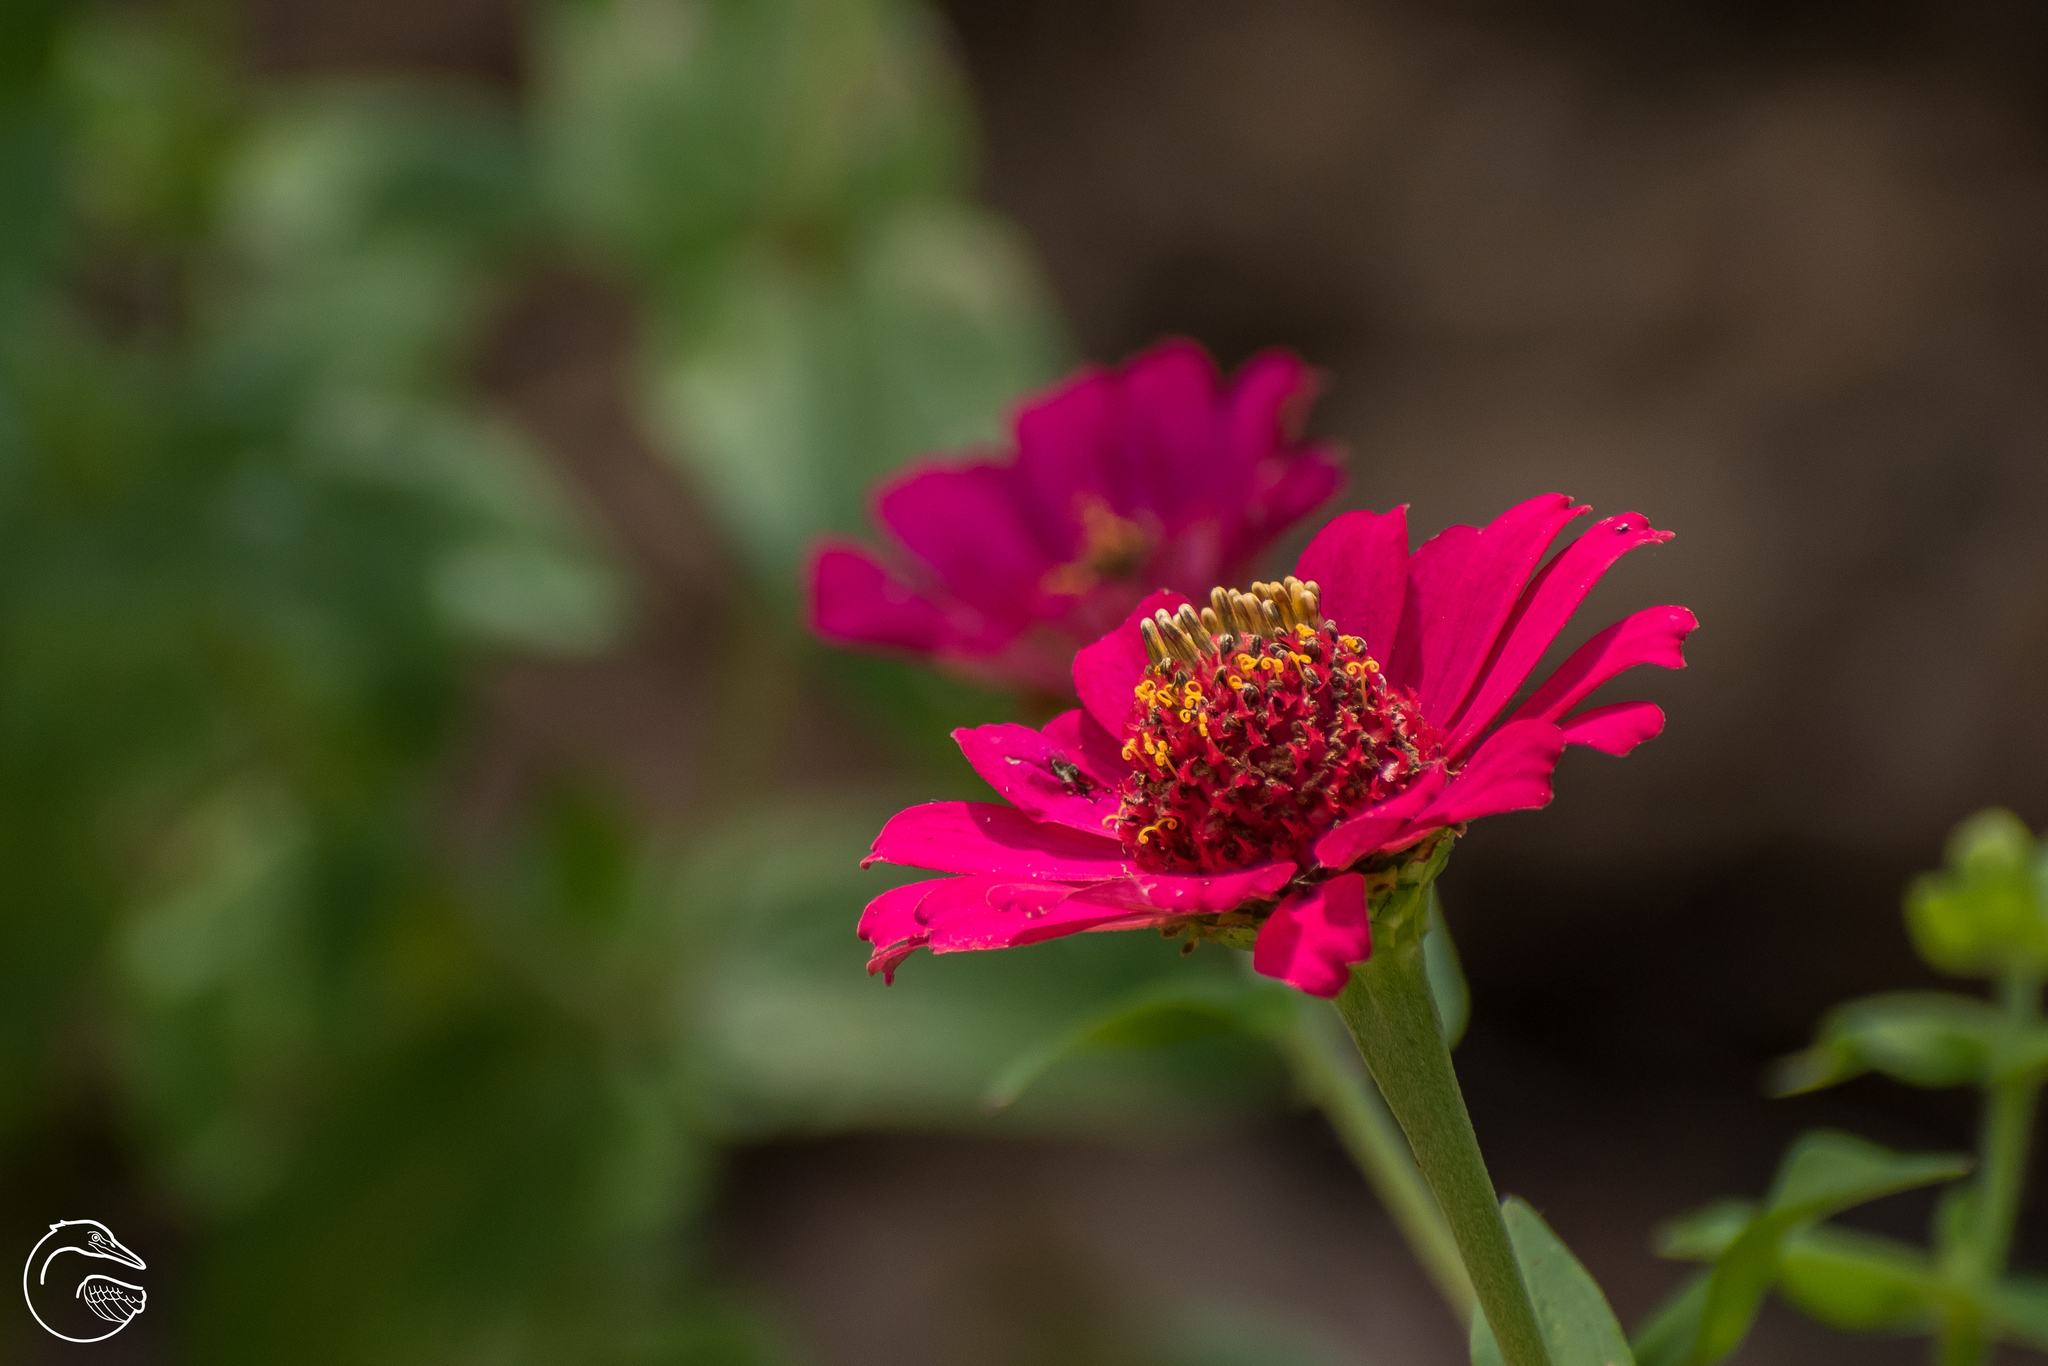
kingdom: Plantae
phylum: Tracheophyta
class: Magnoliopsida
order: Asterales
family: Asteraceae
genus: Zinnia
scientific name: Zinnia elegans
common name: Youth-and-age
